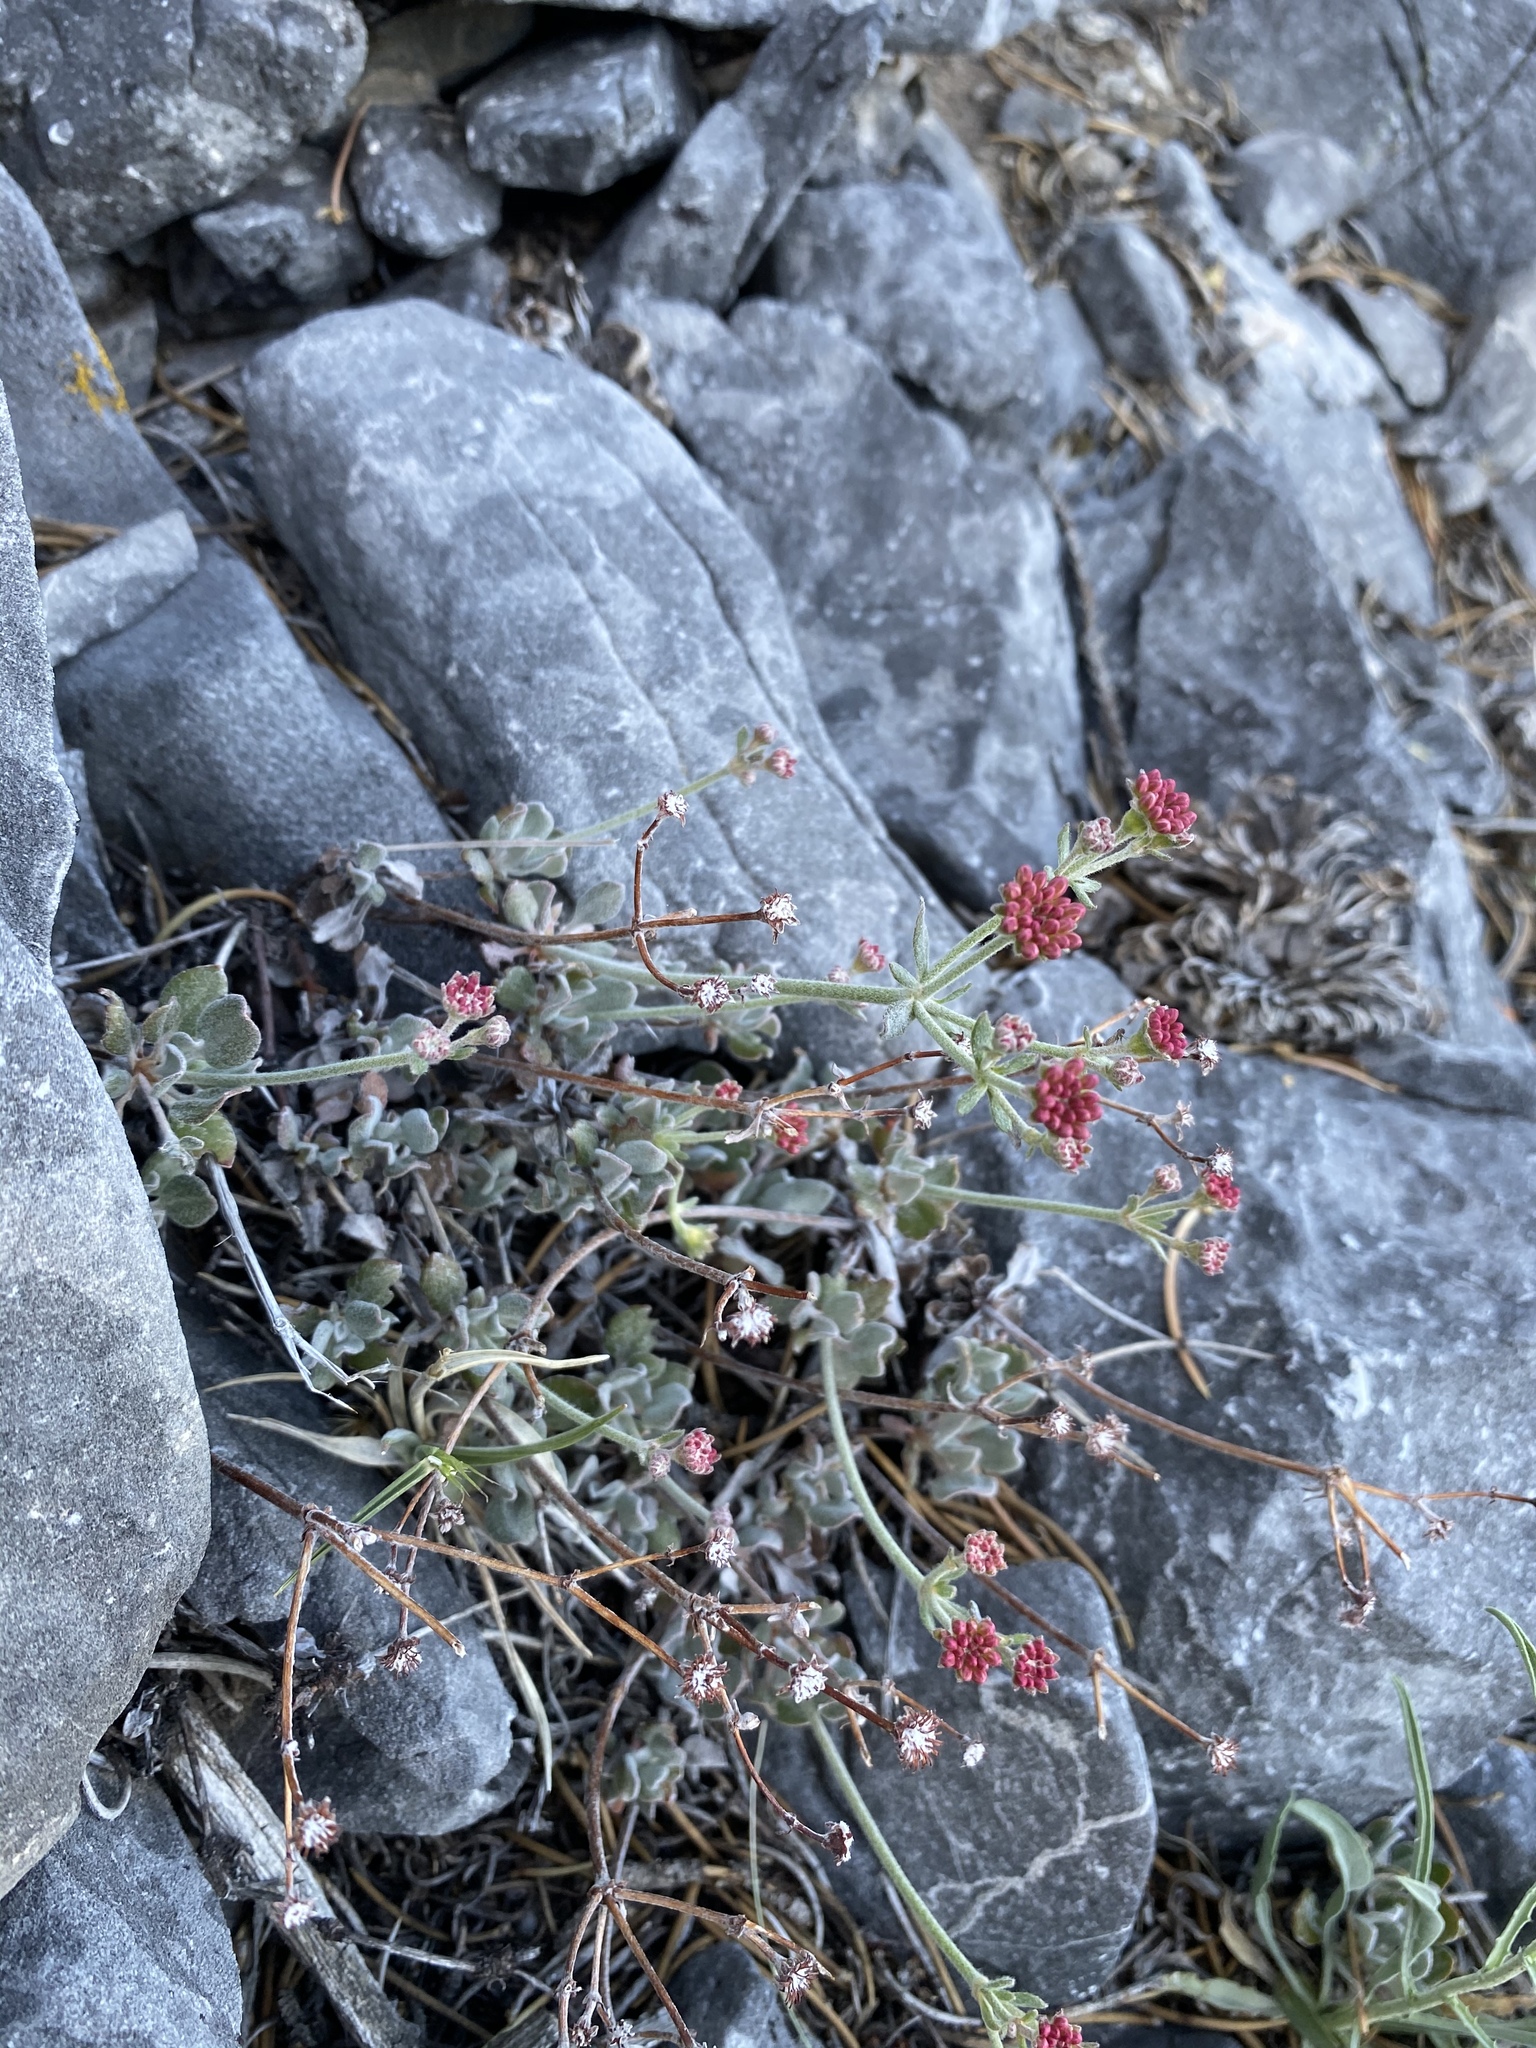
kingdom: Plantae
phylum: Tracheophyta
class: Magnoliopsida
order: Caryophyllales
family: Polygonaceae
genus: Eriogonum
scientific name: Eriogonum umbellatum
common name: Sulfur-buckwheat
